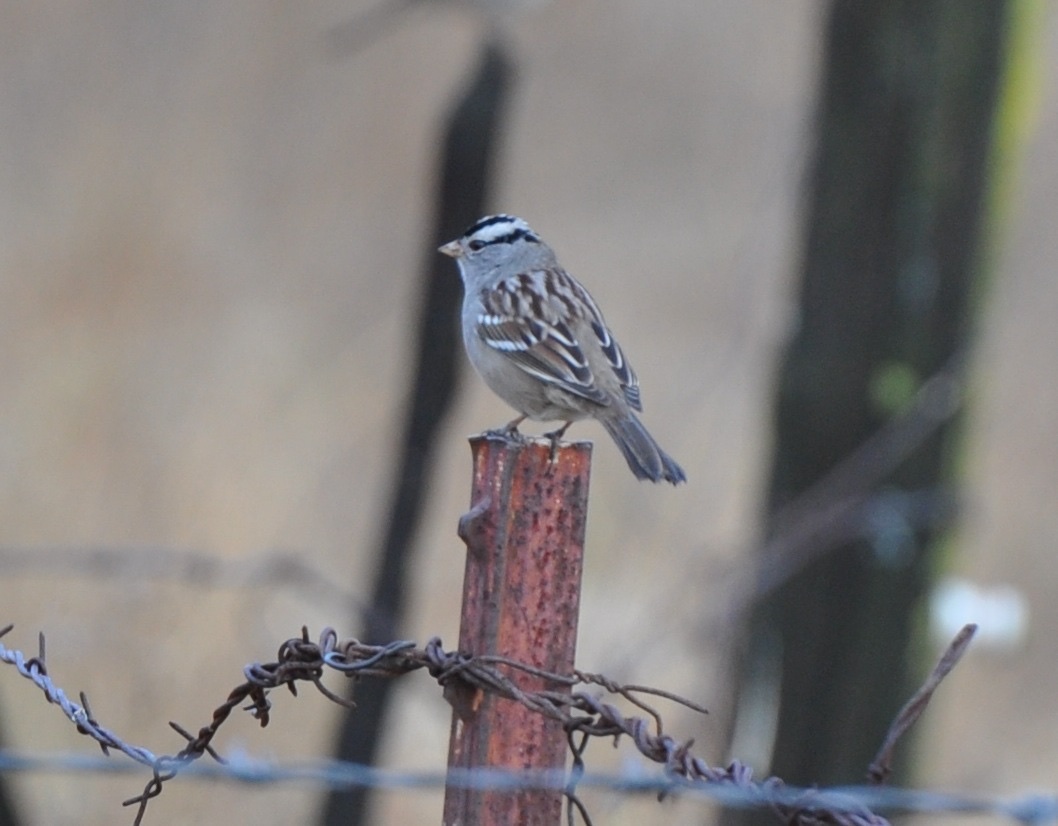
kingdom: Animalia
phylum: Chordata
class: Aves
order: Passeriformes
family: Passerellidae
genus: Zonotrichia
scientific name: Zonotrichia leucophrys
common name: White-crowned sparrow
